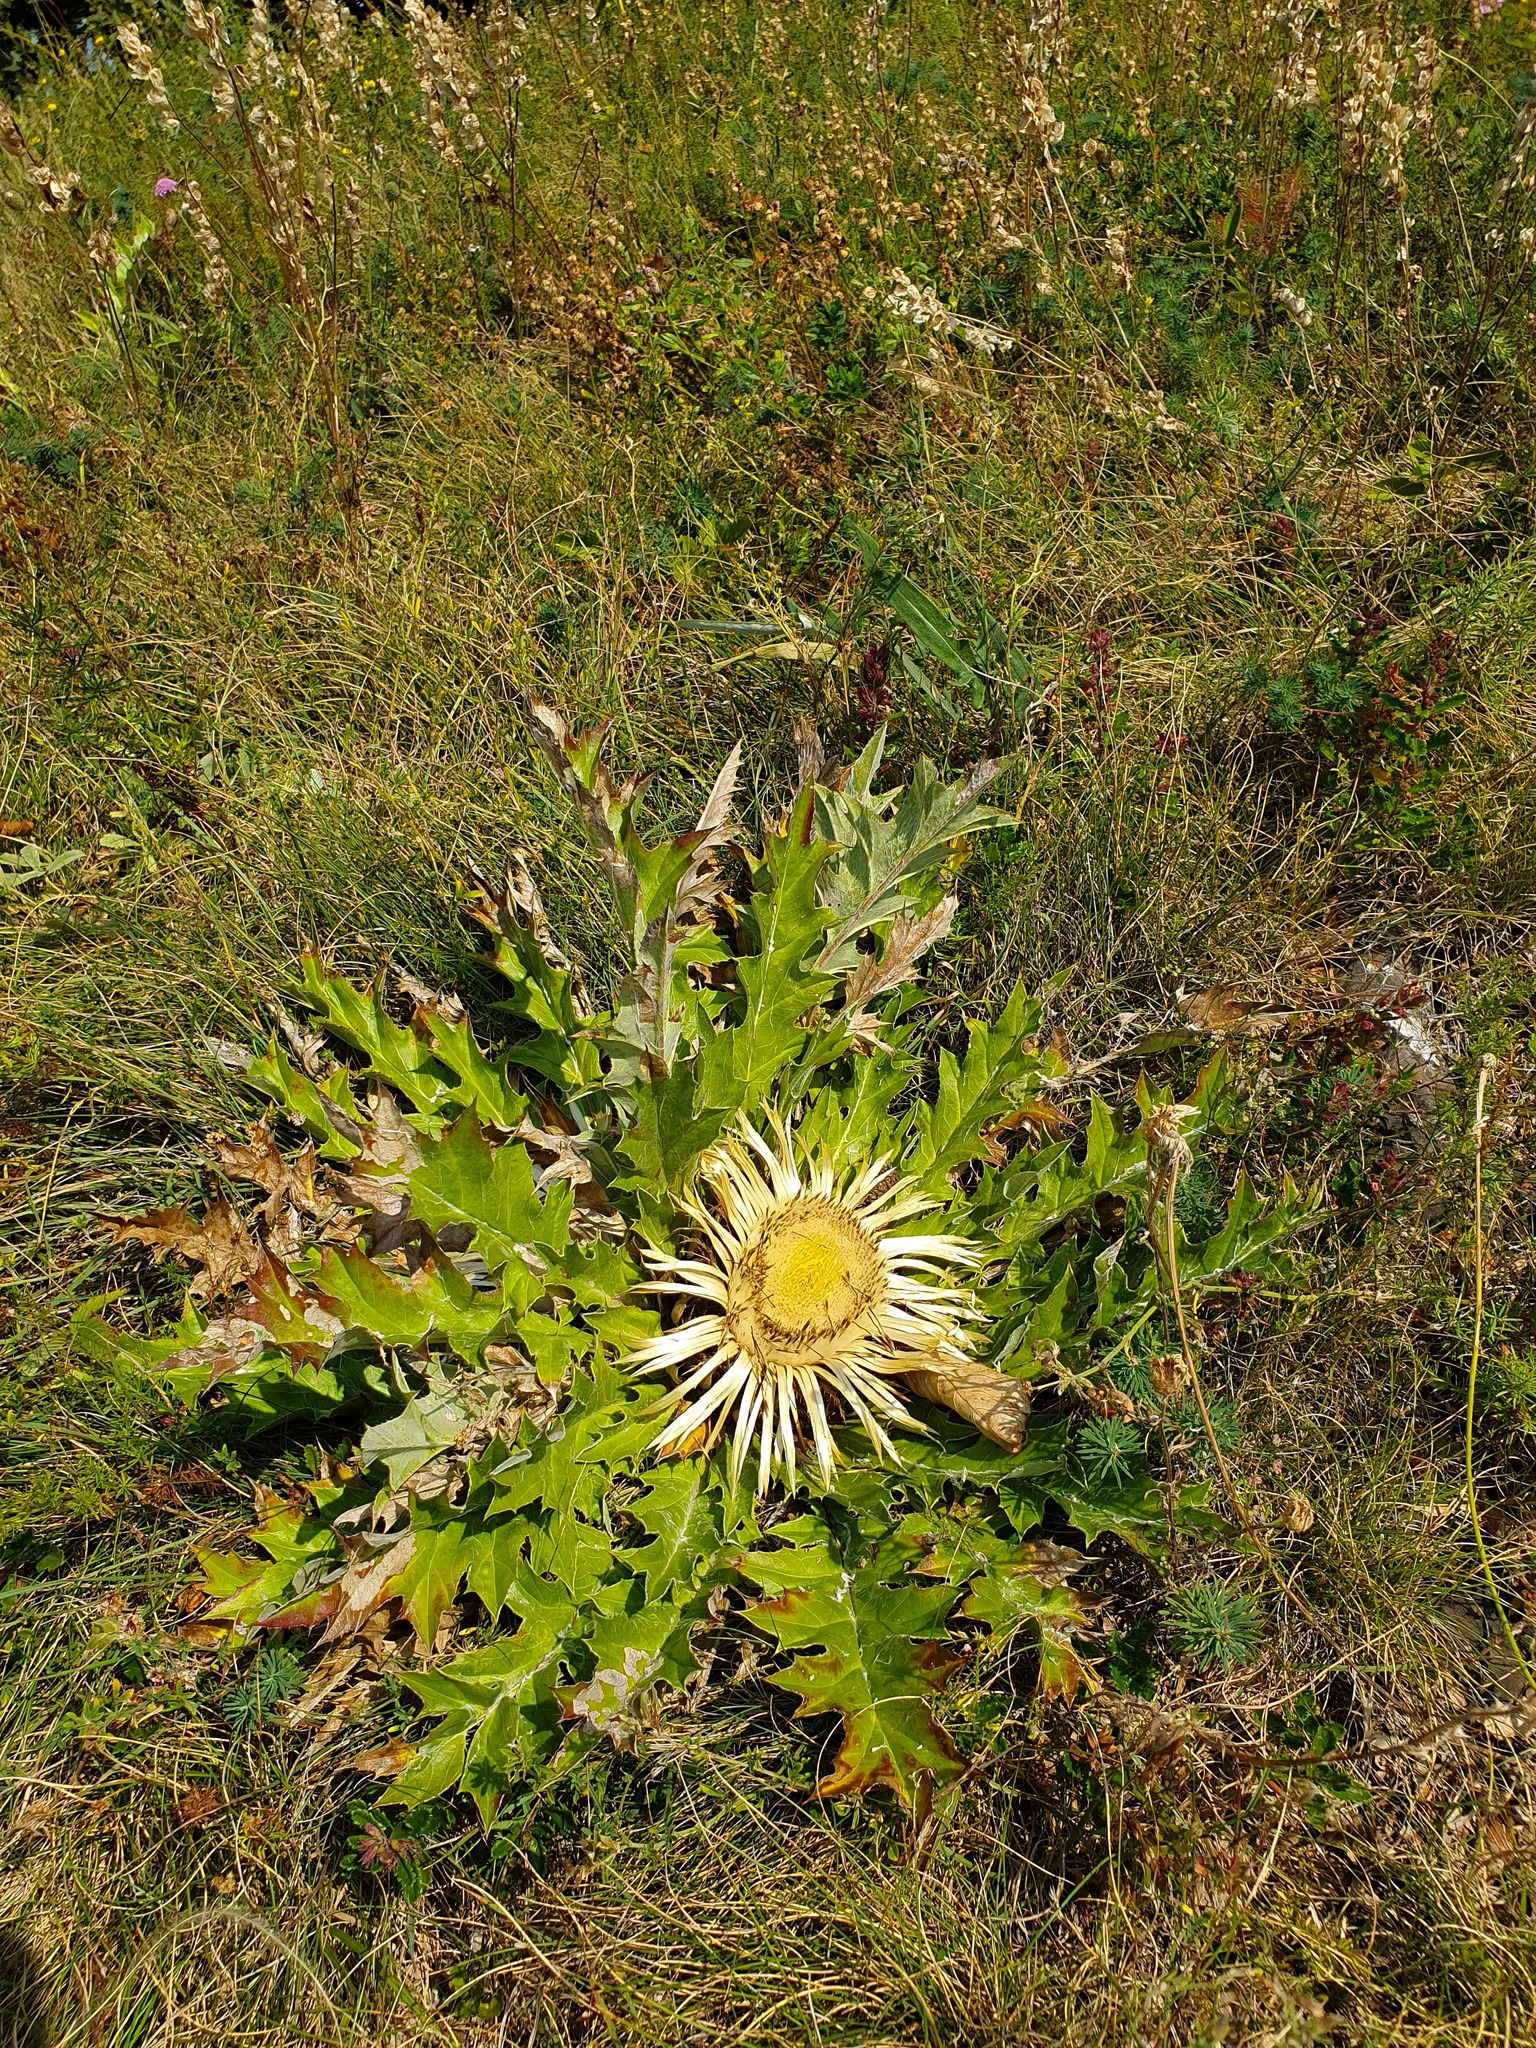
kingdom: Plantae
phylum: Tracheophyta
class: Magnoliopsida
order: Asterales
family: Asteraceae
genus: Carlina
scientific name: Carlina acanthifolia
